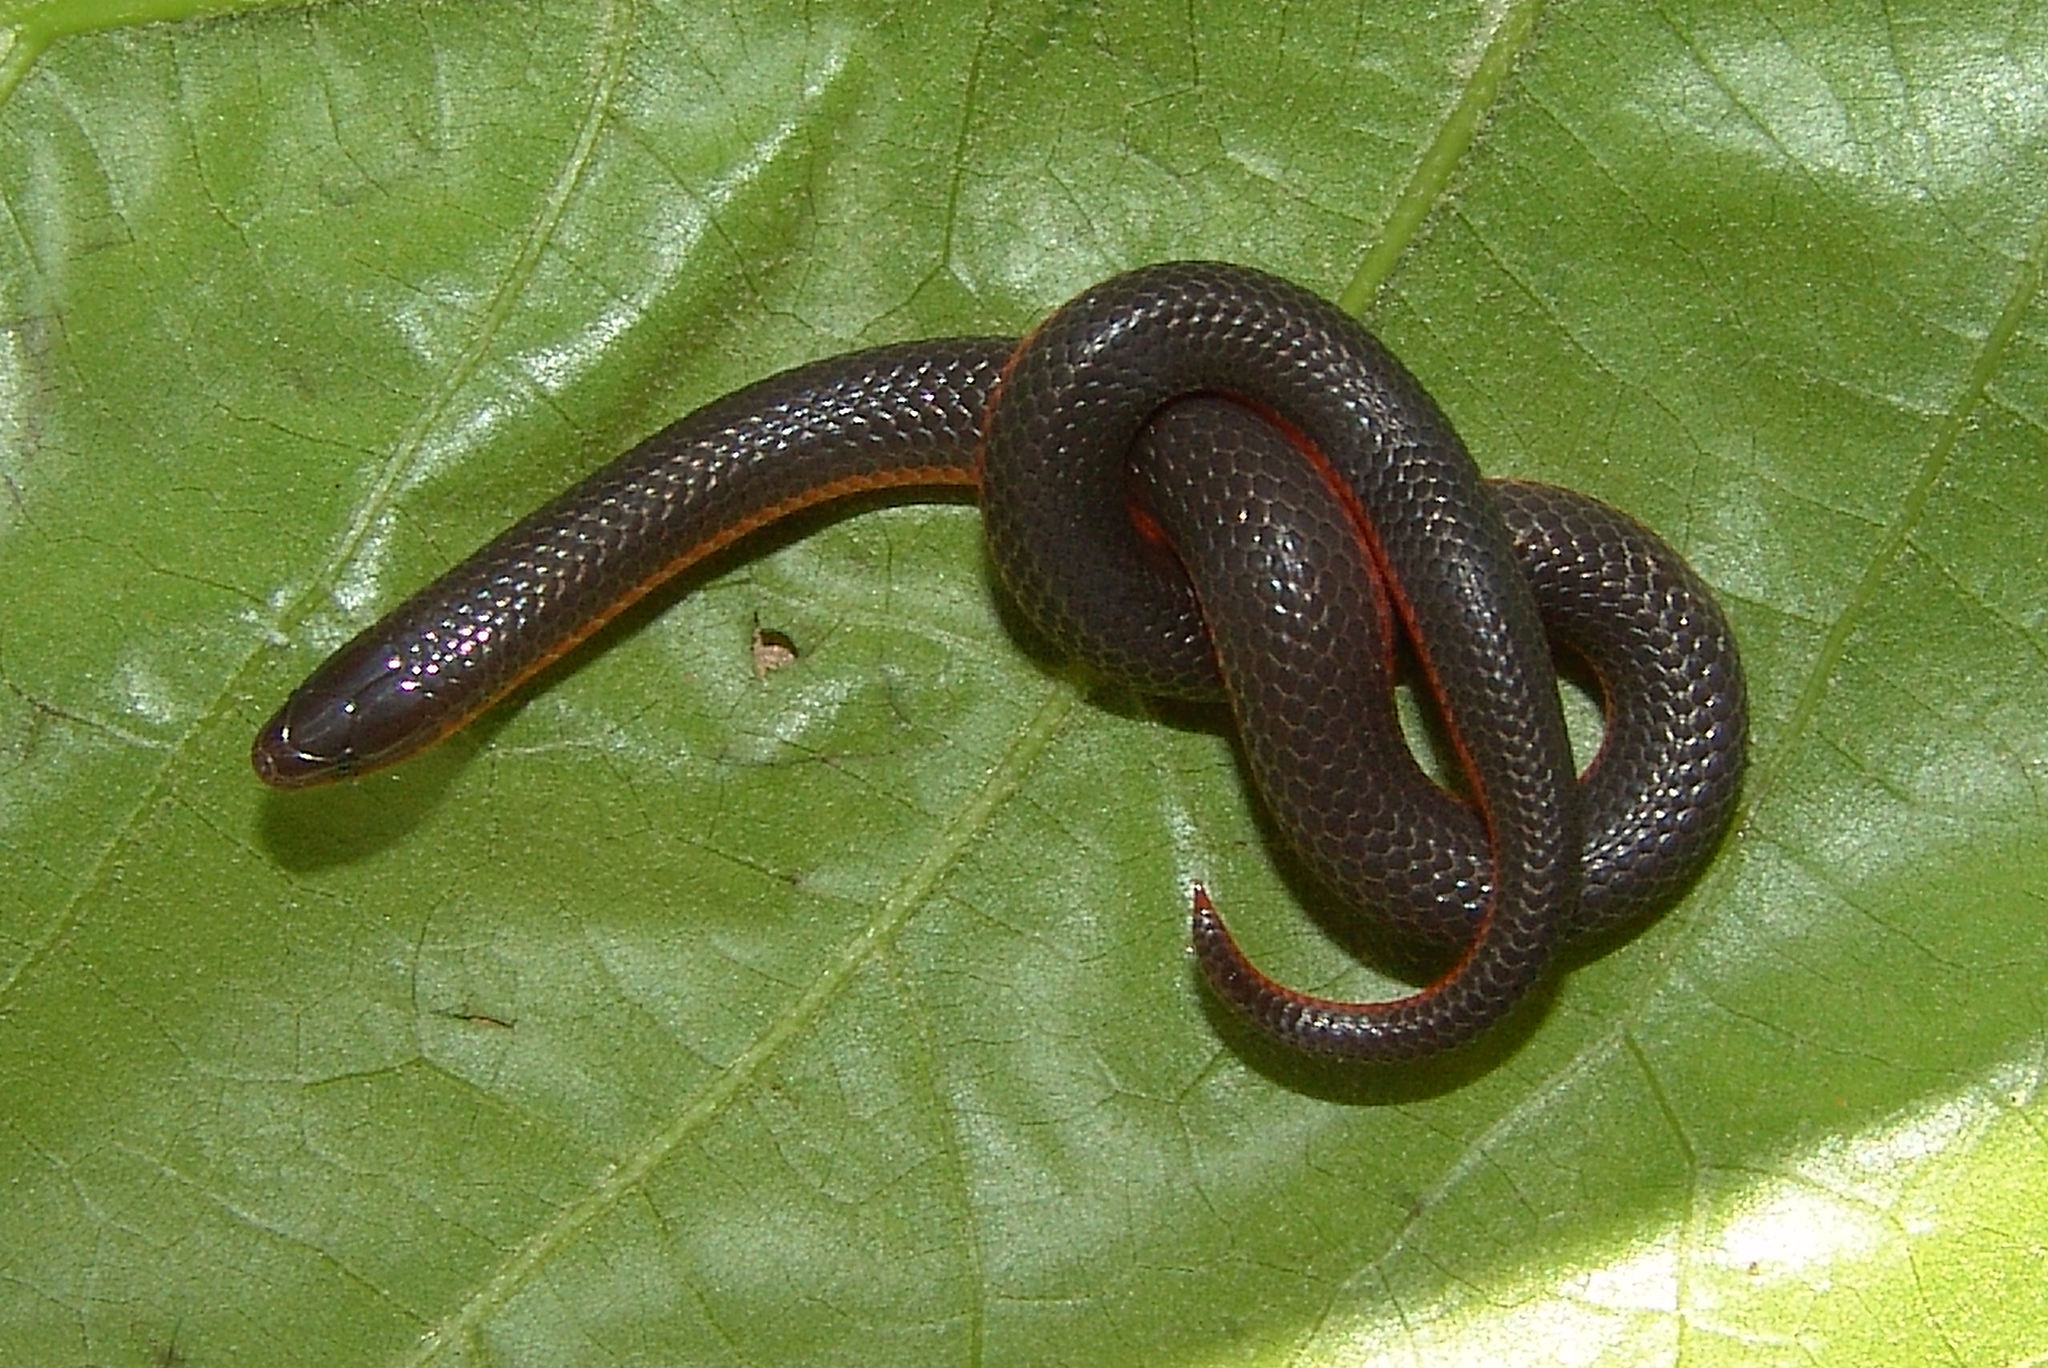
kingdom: Animalia
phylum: Chordata
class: Squamata
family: Colubridae
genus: Carphophis
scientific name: Carphophis amoenus
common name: Eastern worm snake
